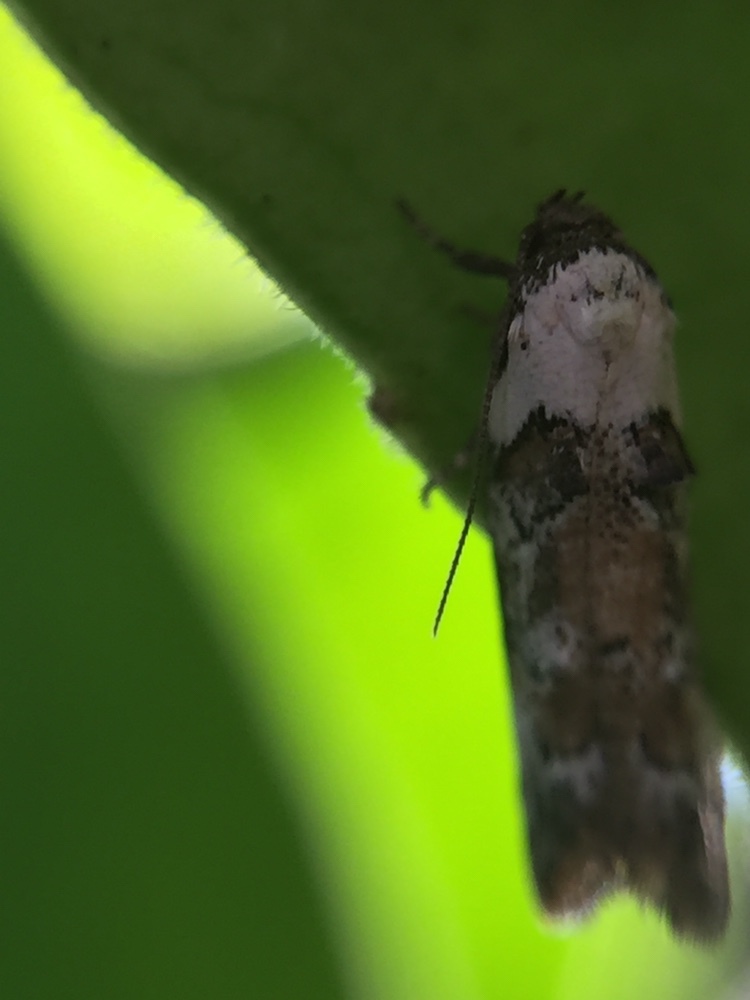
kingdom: Animalia
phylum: Arthropoda
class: Insecta
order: Lepidoptera
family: Oecophoridae
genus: Trachypepla
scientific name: Trachypepla festiva
